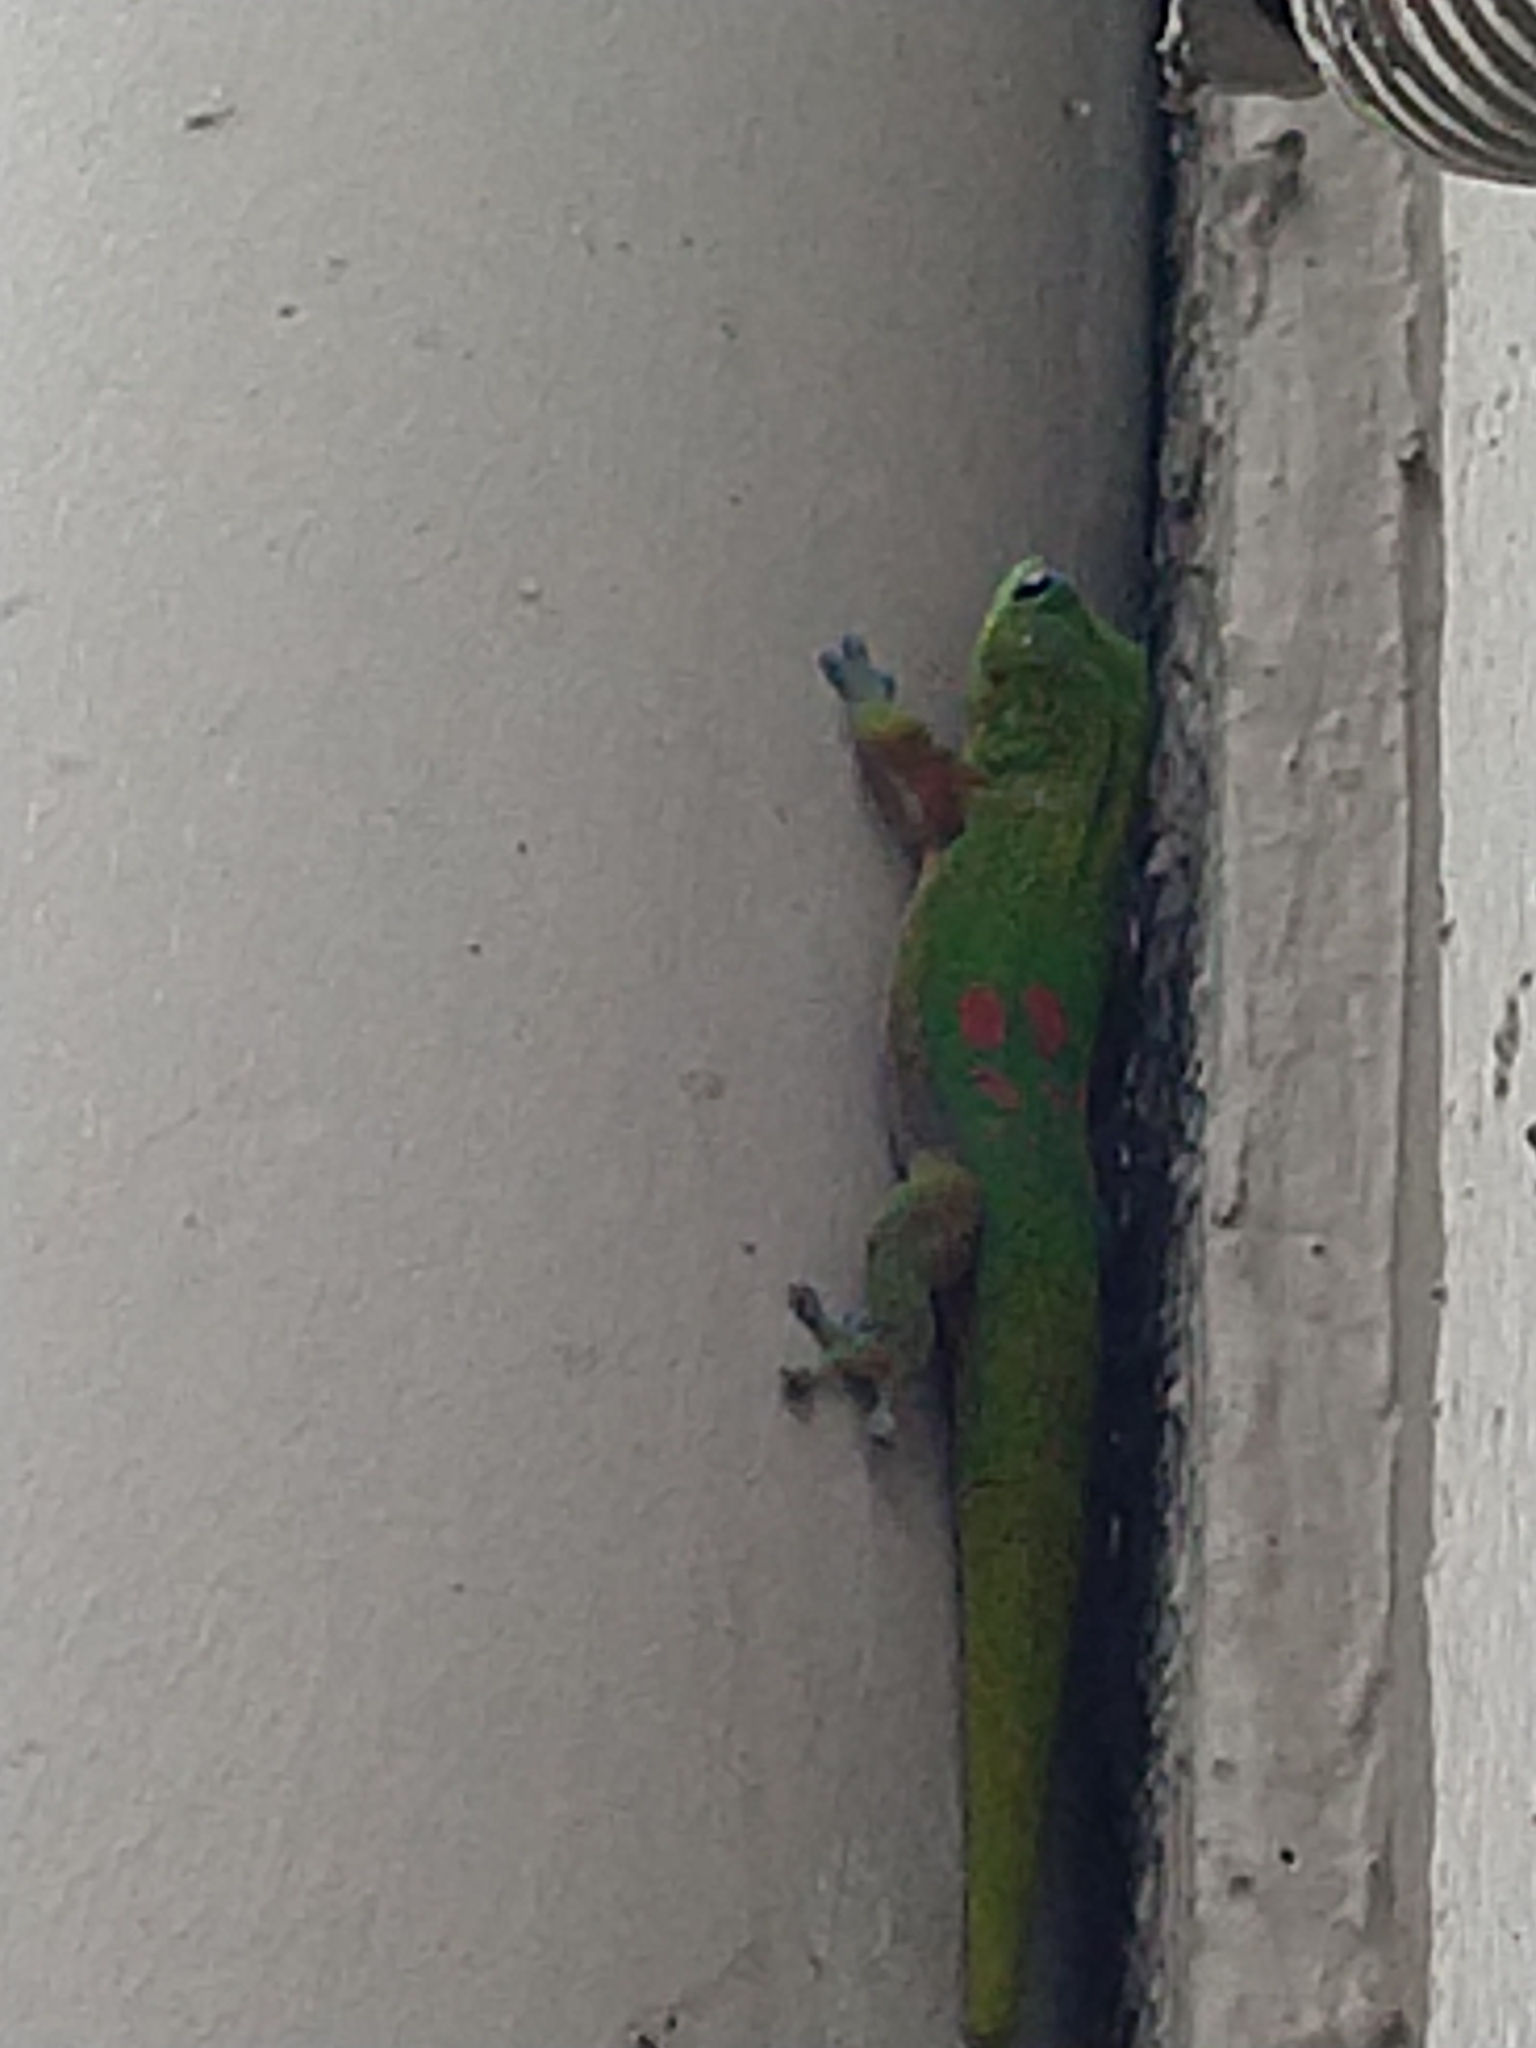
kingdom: Animalia
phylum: Chordata
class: Squamata
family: Gekkonidae
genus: Phelsuma
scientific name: Phelsuma laticauda
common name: Gold dust day gecko
